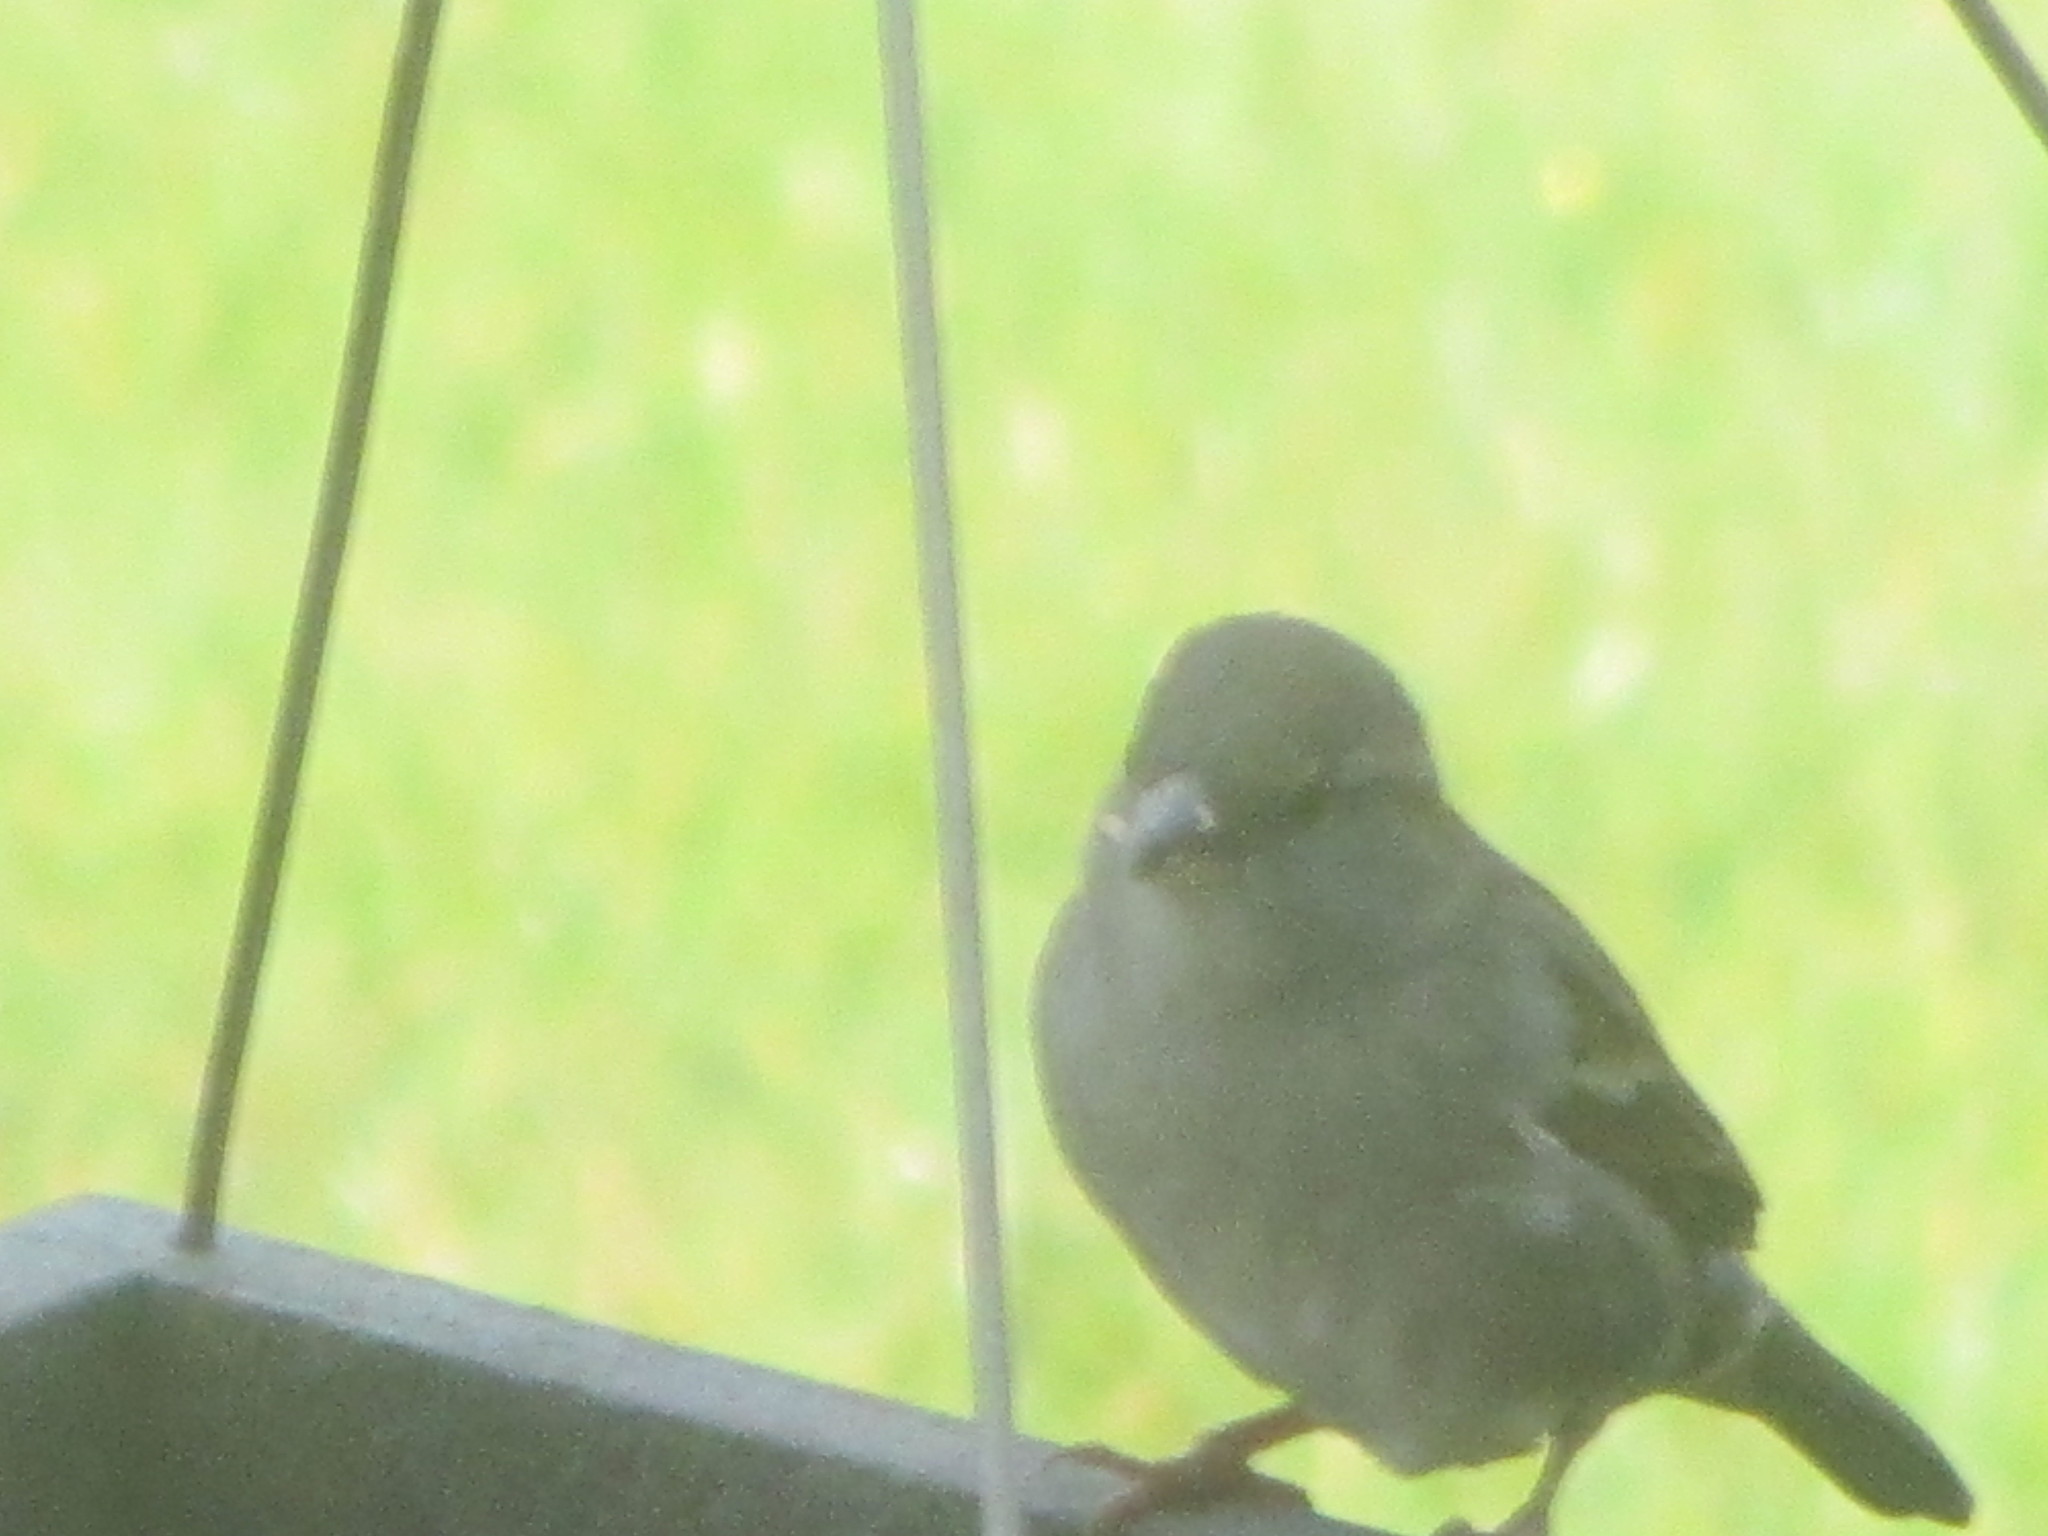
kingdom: Animalia
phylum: Chordata
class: Aves
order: Passeriformes
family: Passeridae
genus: Passer
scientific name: Passer domesticus
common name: House sparrow
